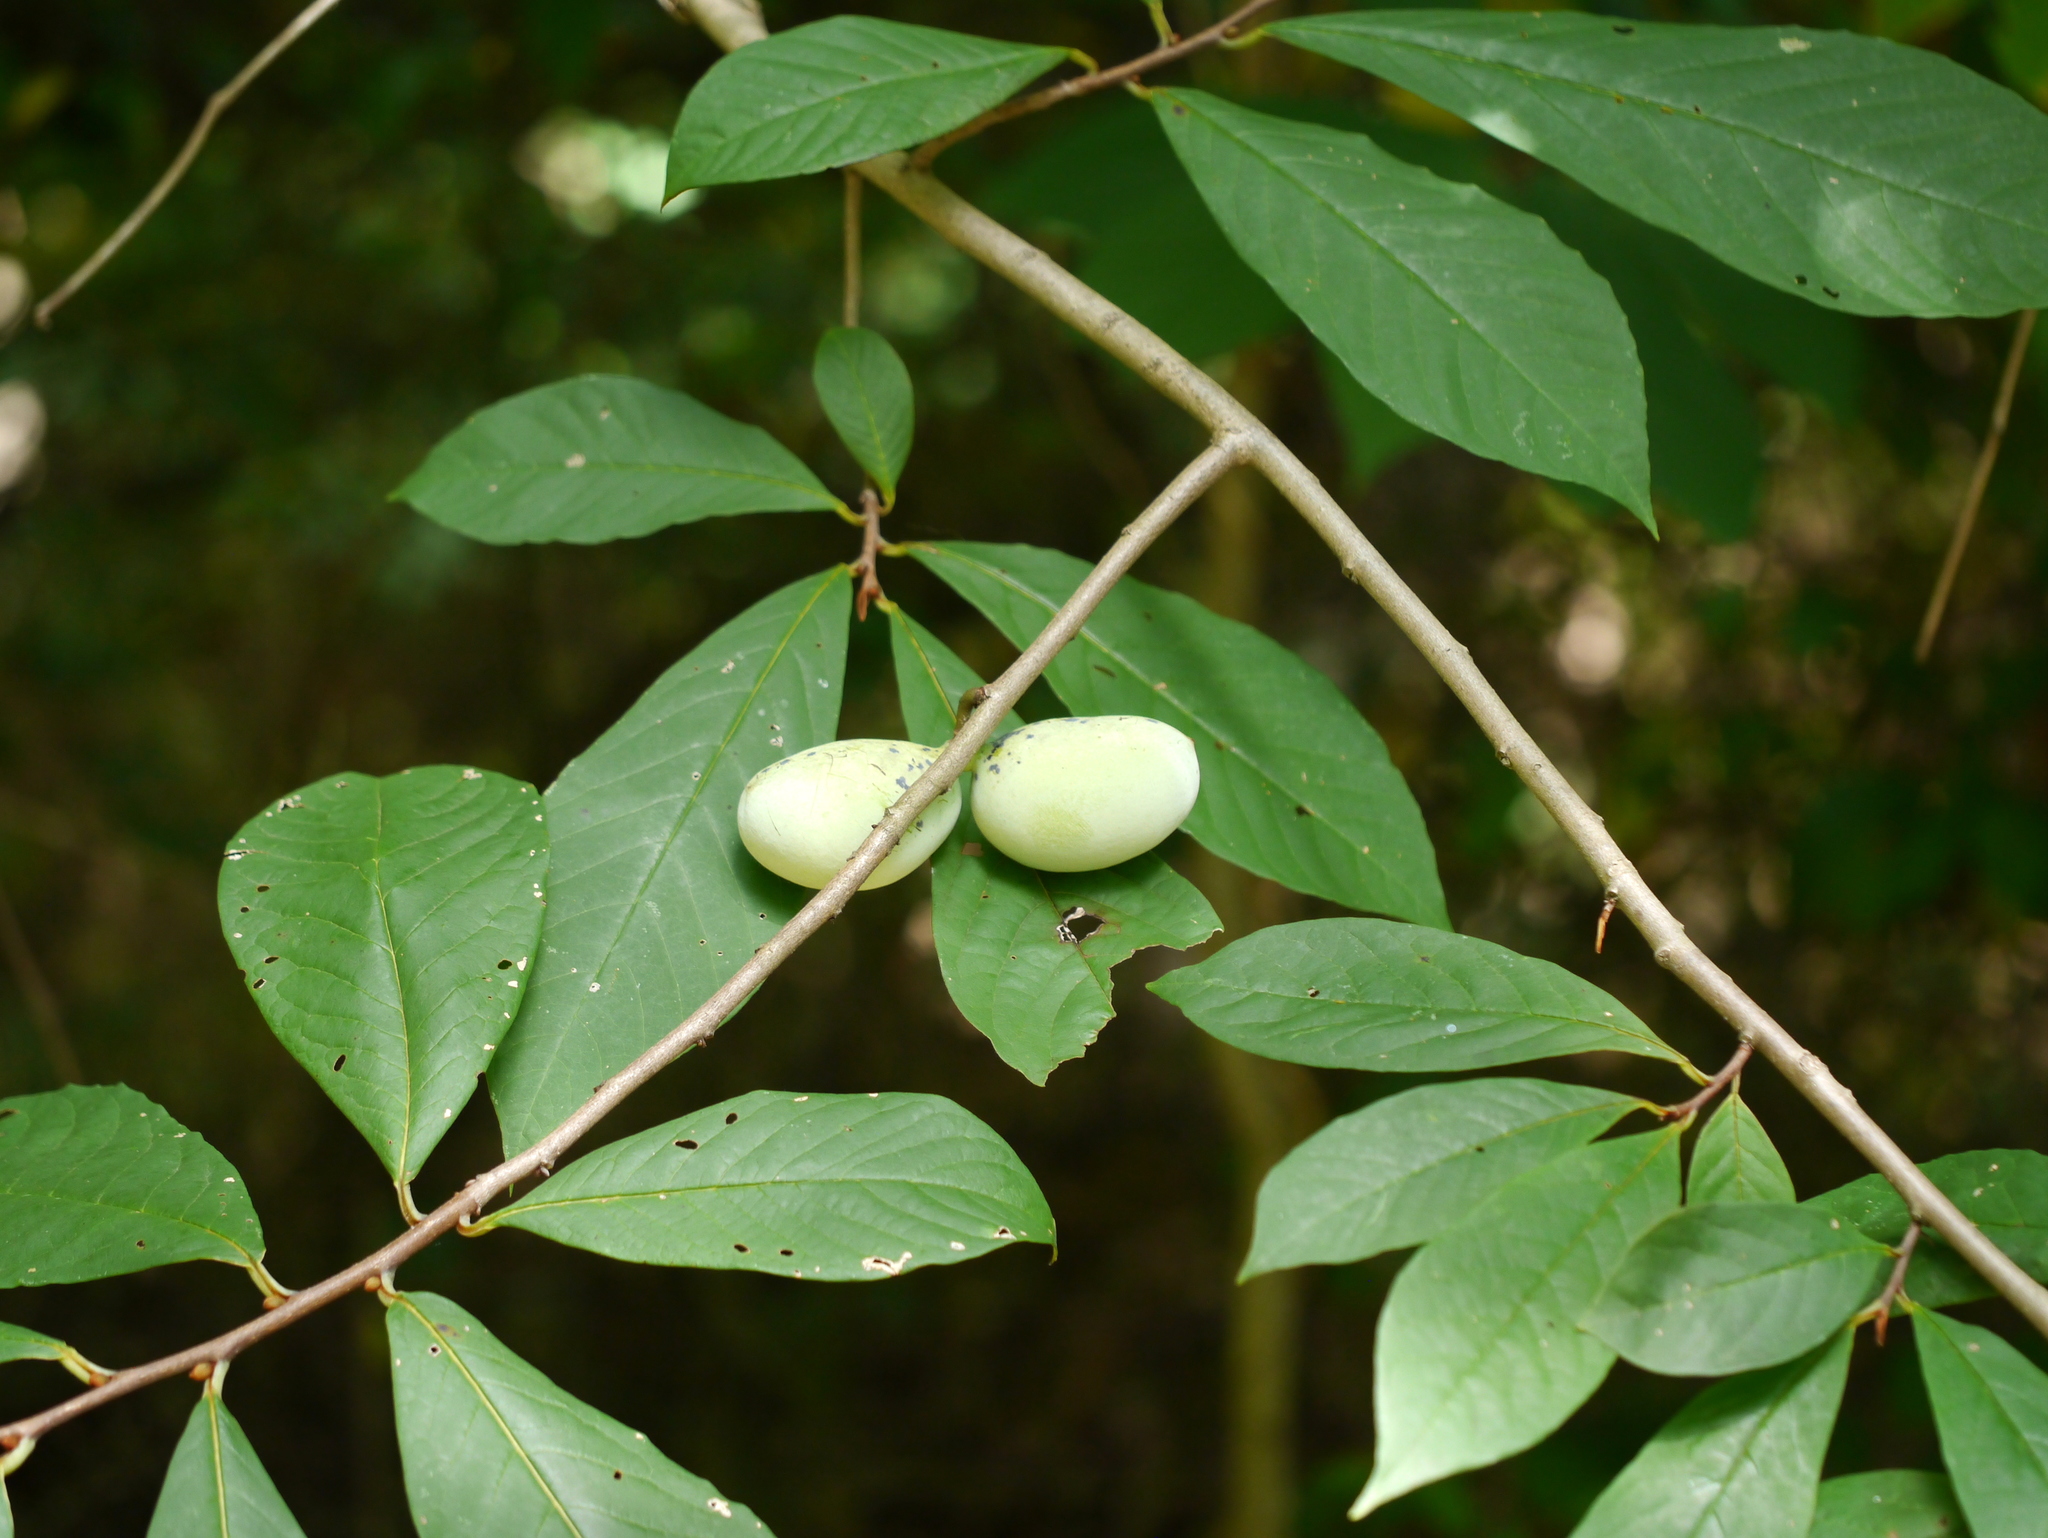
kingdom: Plantae
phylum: Tracheophyta
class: Magnoliopsida
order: Magnoliales
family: Annonaceae
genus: Asimina
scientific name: Asimina triloba
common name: Dog-banana
